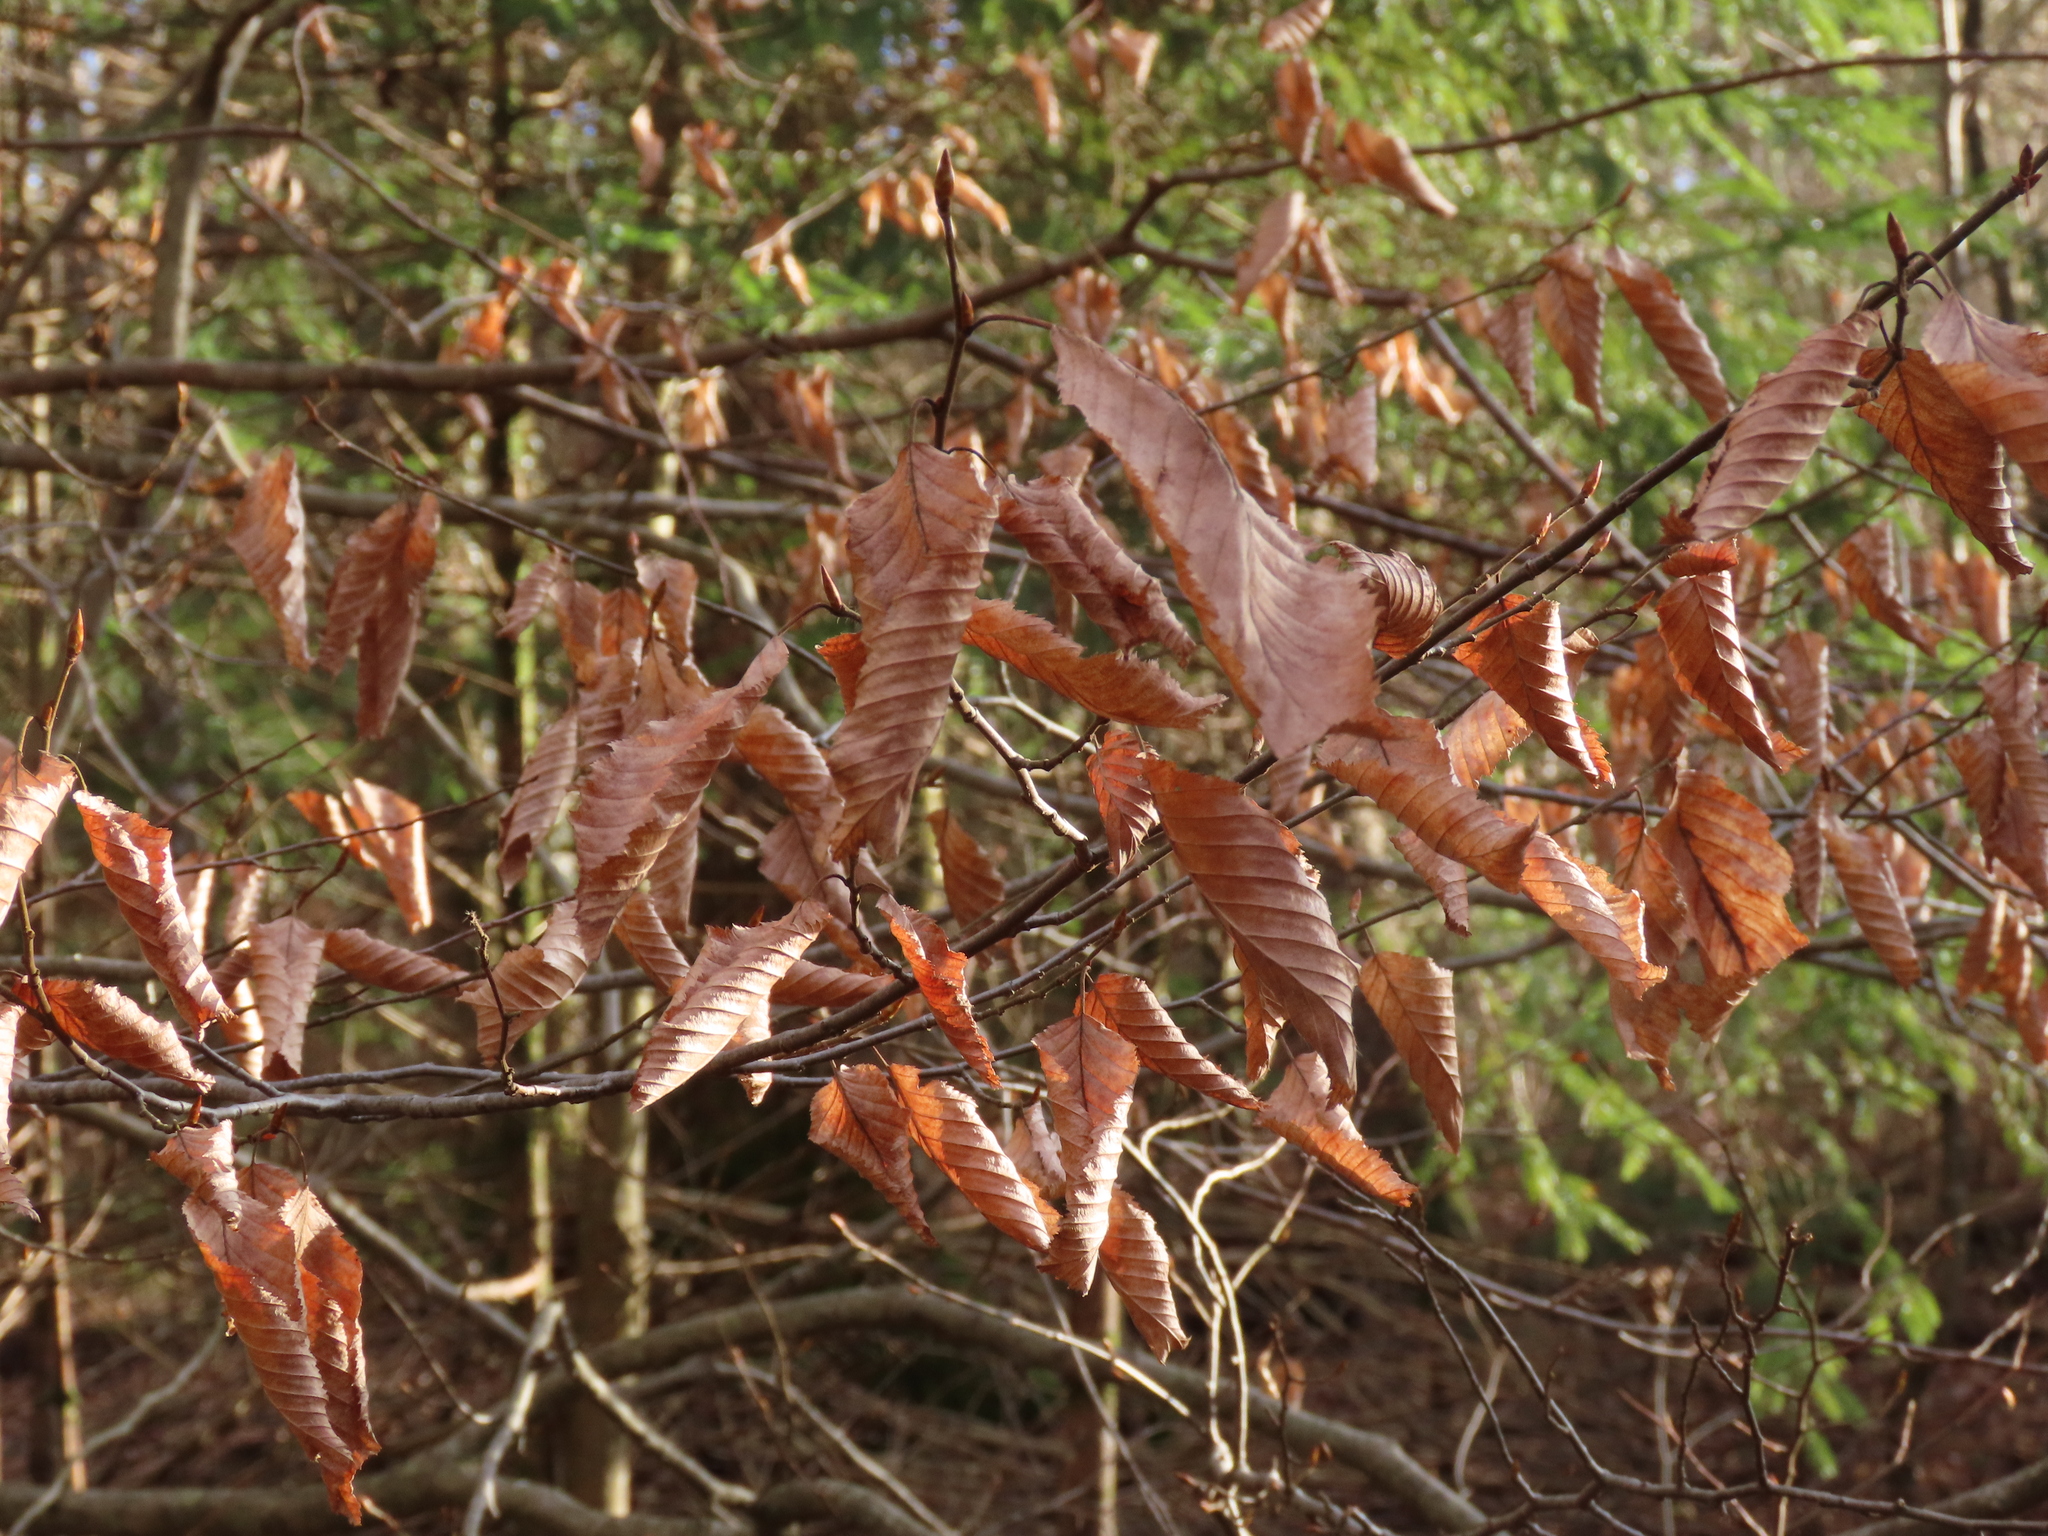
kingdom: Plantae
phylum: Tracheophyta
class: Magnoliopsida
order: Fagales
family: Betulaceae
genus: Carpinus
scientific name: Carpinus betulus
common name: Hornbeam
